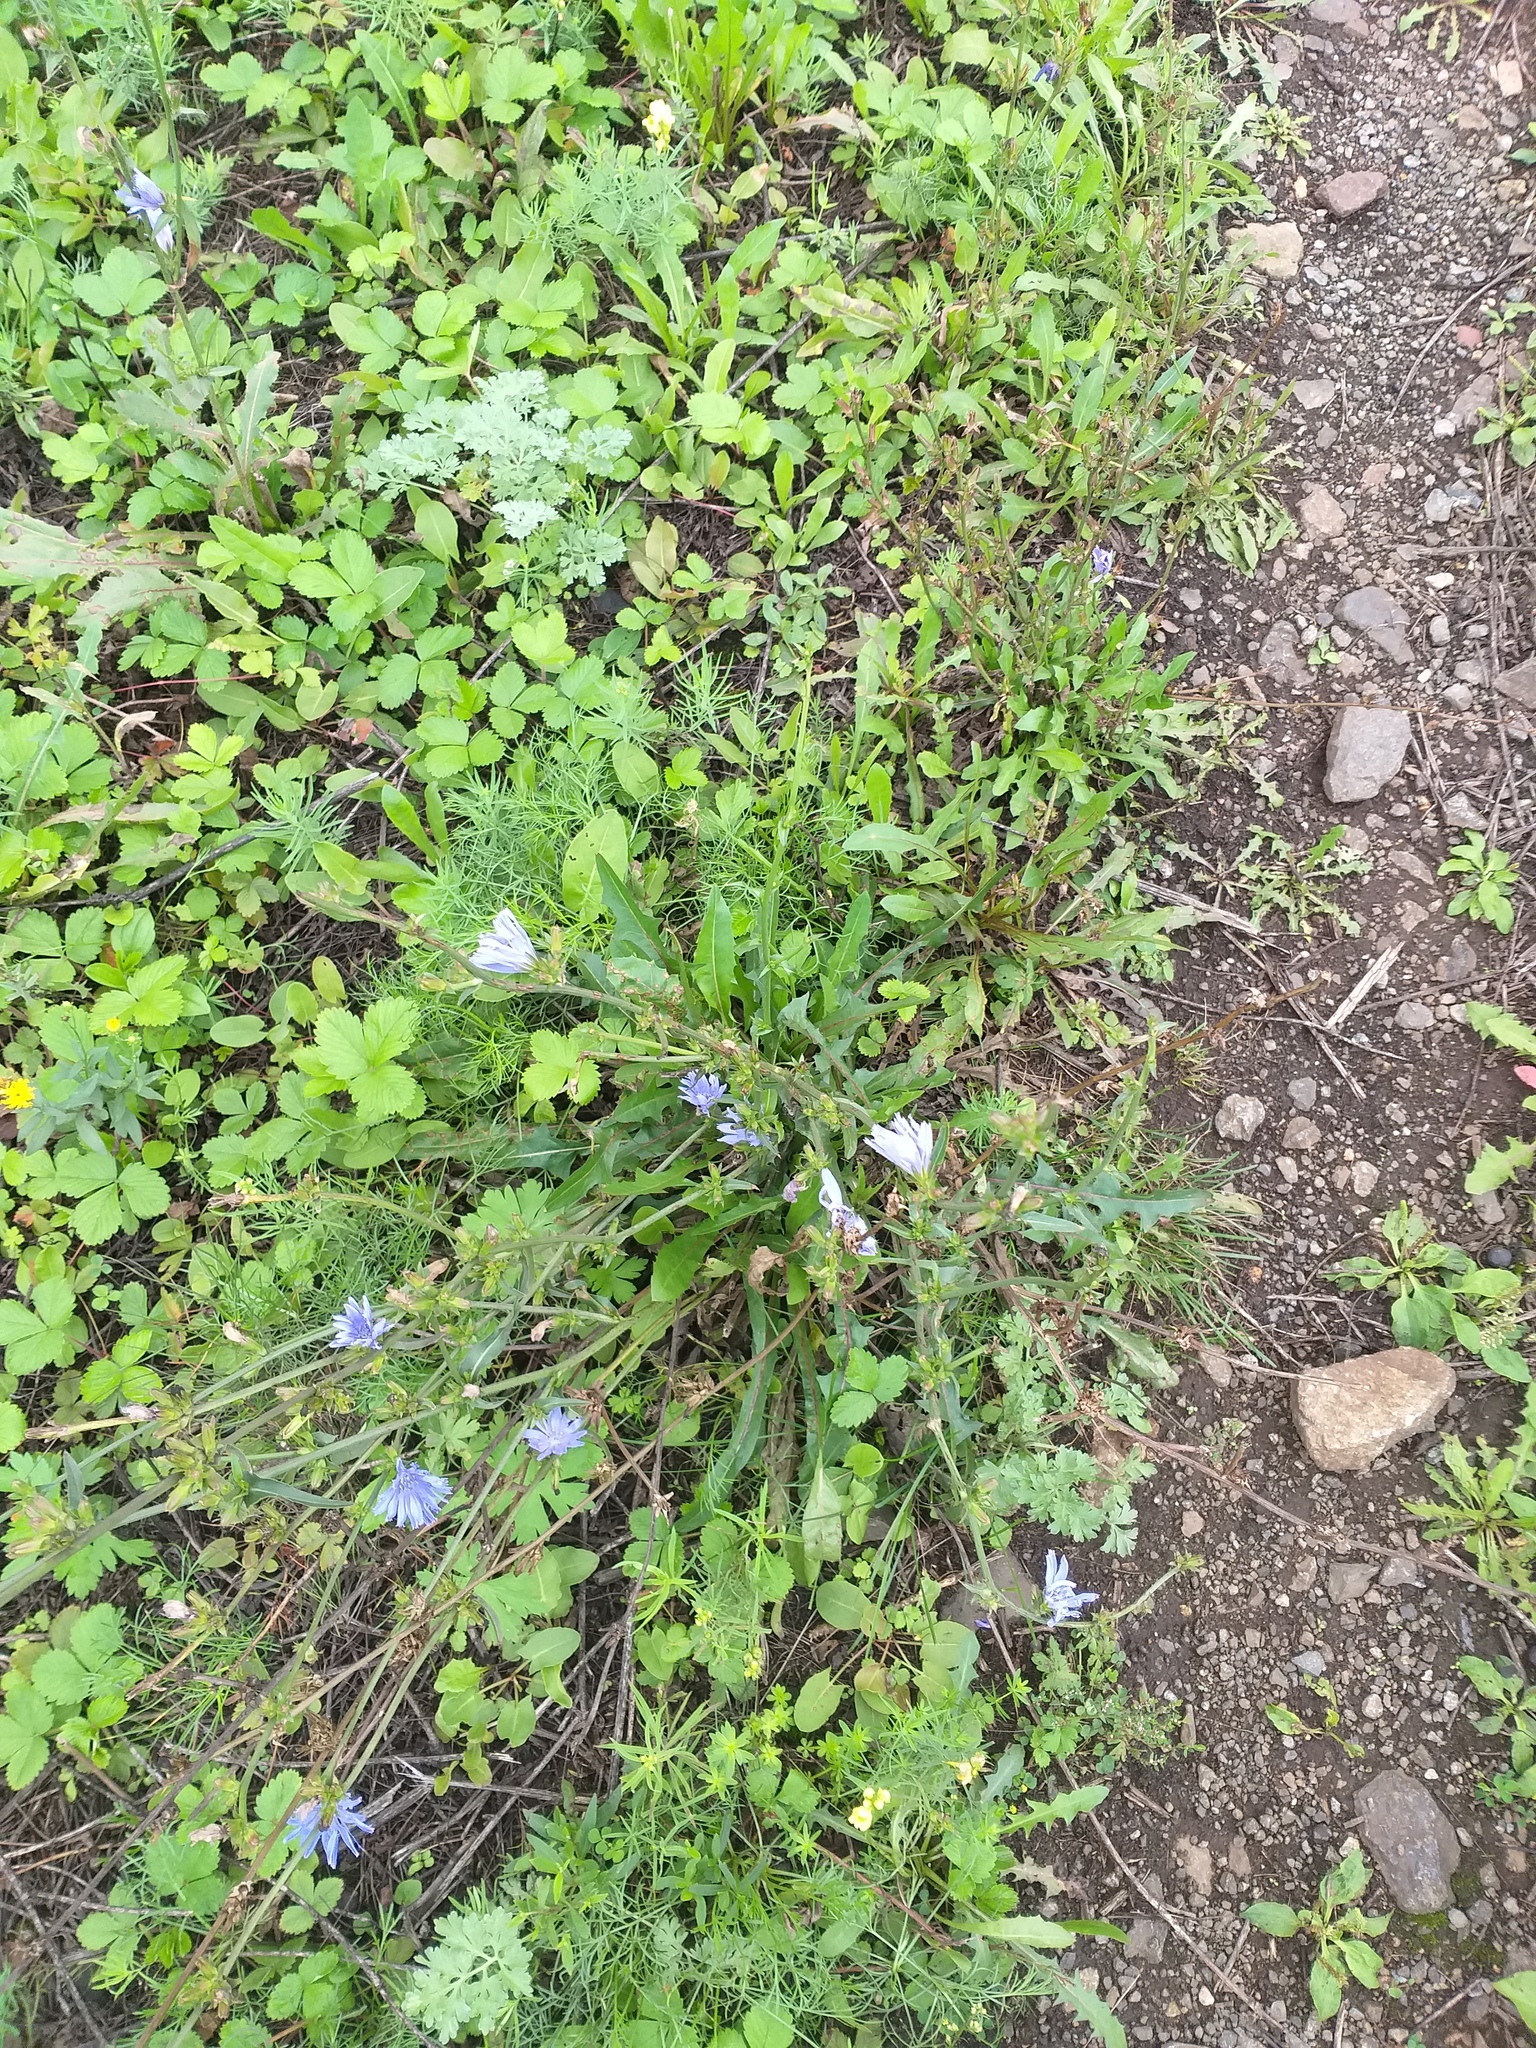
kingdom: Plantae
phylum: Tracheophyta
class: Magnoliopsida
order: Asterales
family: Asteraceae
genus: Cichorium
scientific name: Cichorium intybus
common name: Chicory
